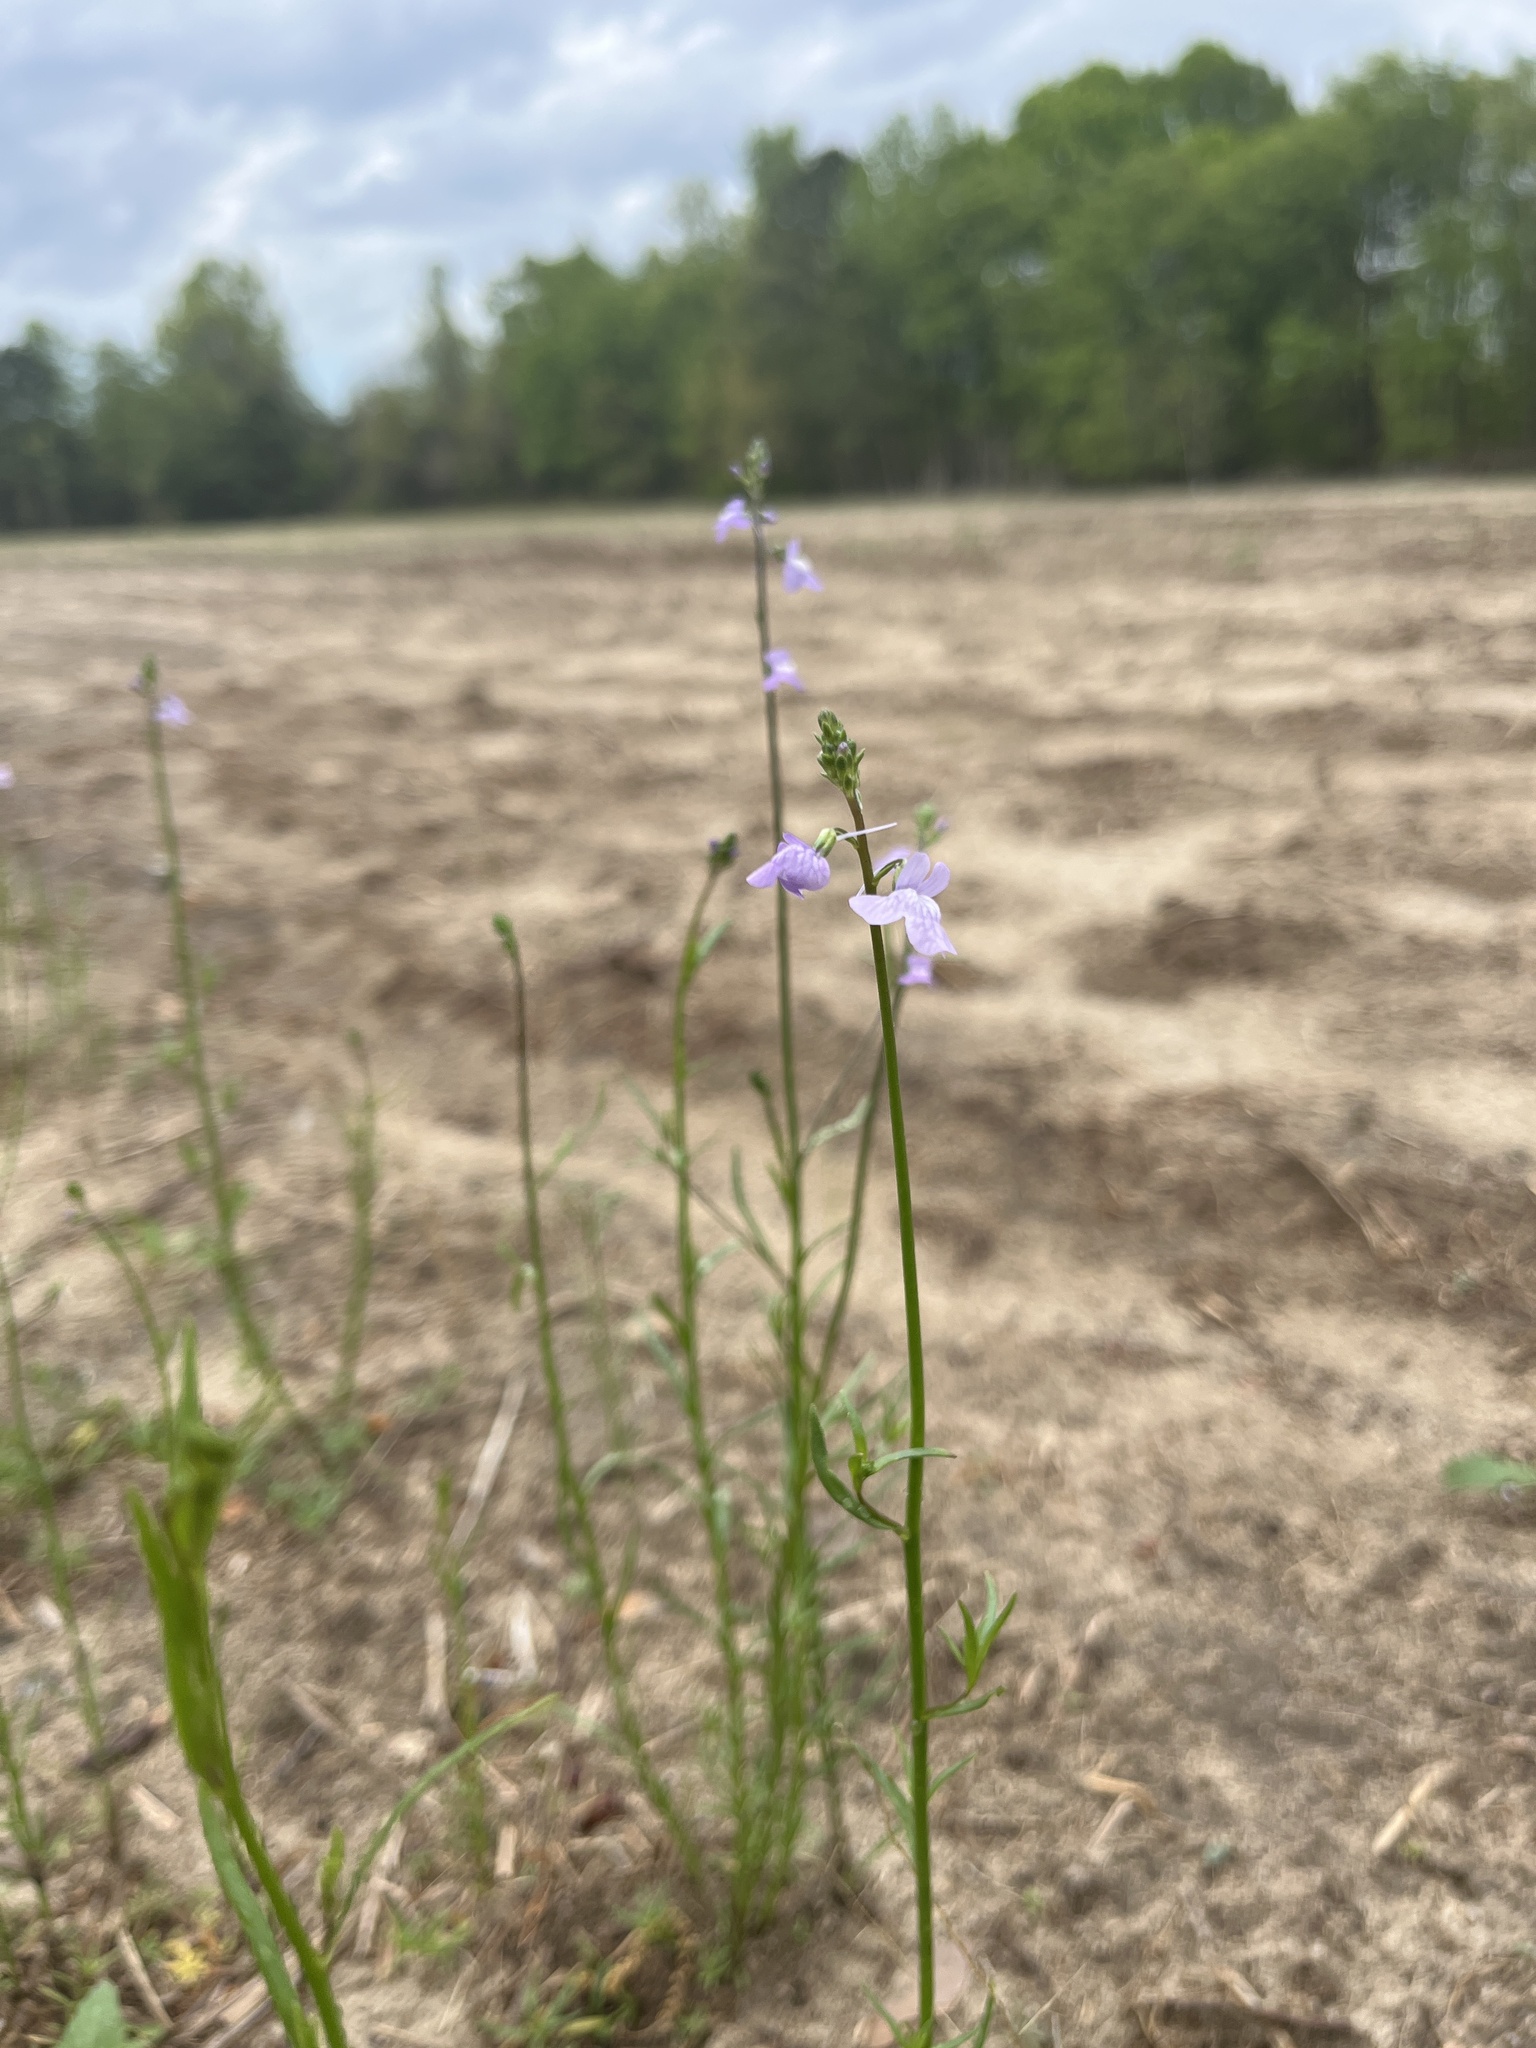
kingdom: Plantae
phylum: Tracheophyta
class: Magnoliopsida
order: Lamiales
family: Plantaginaceae
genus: Nuttallanthus
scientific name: Nuttallanthus
